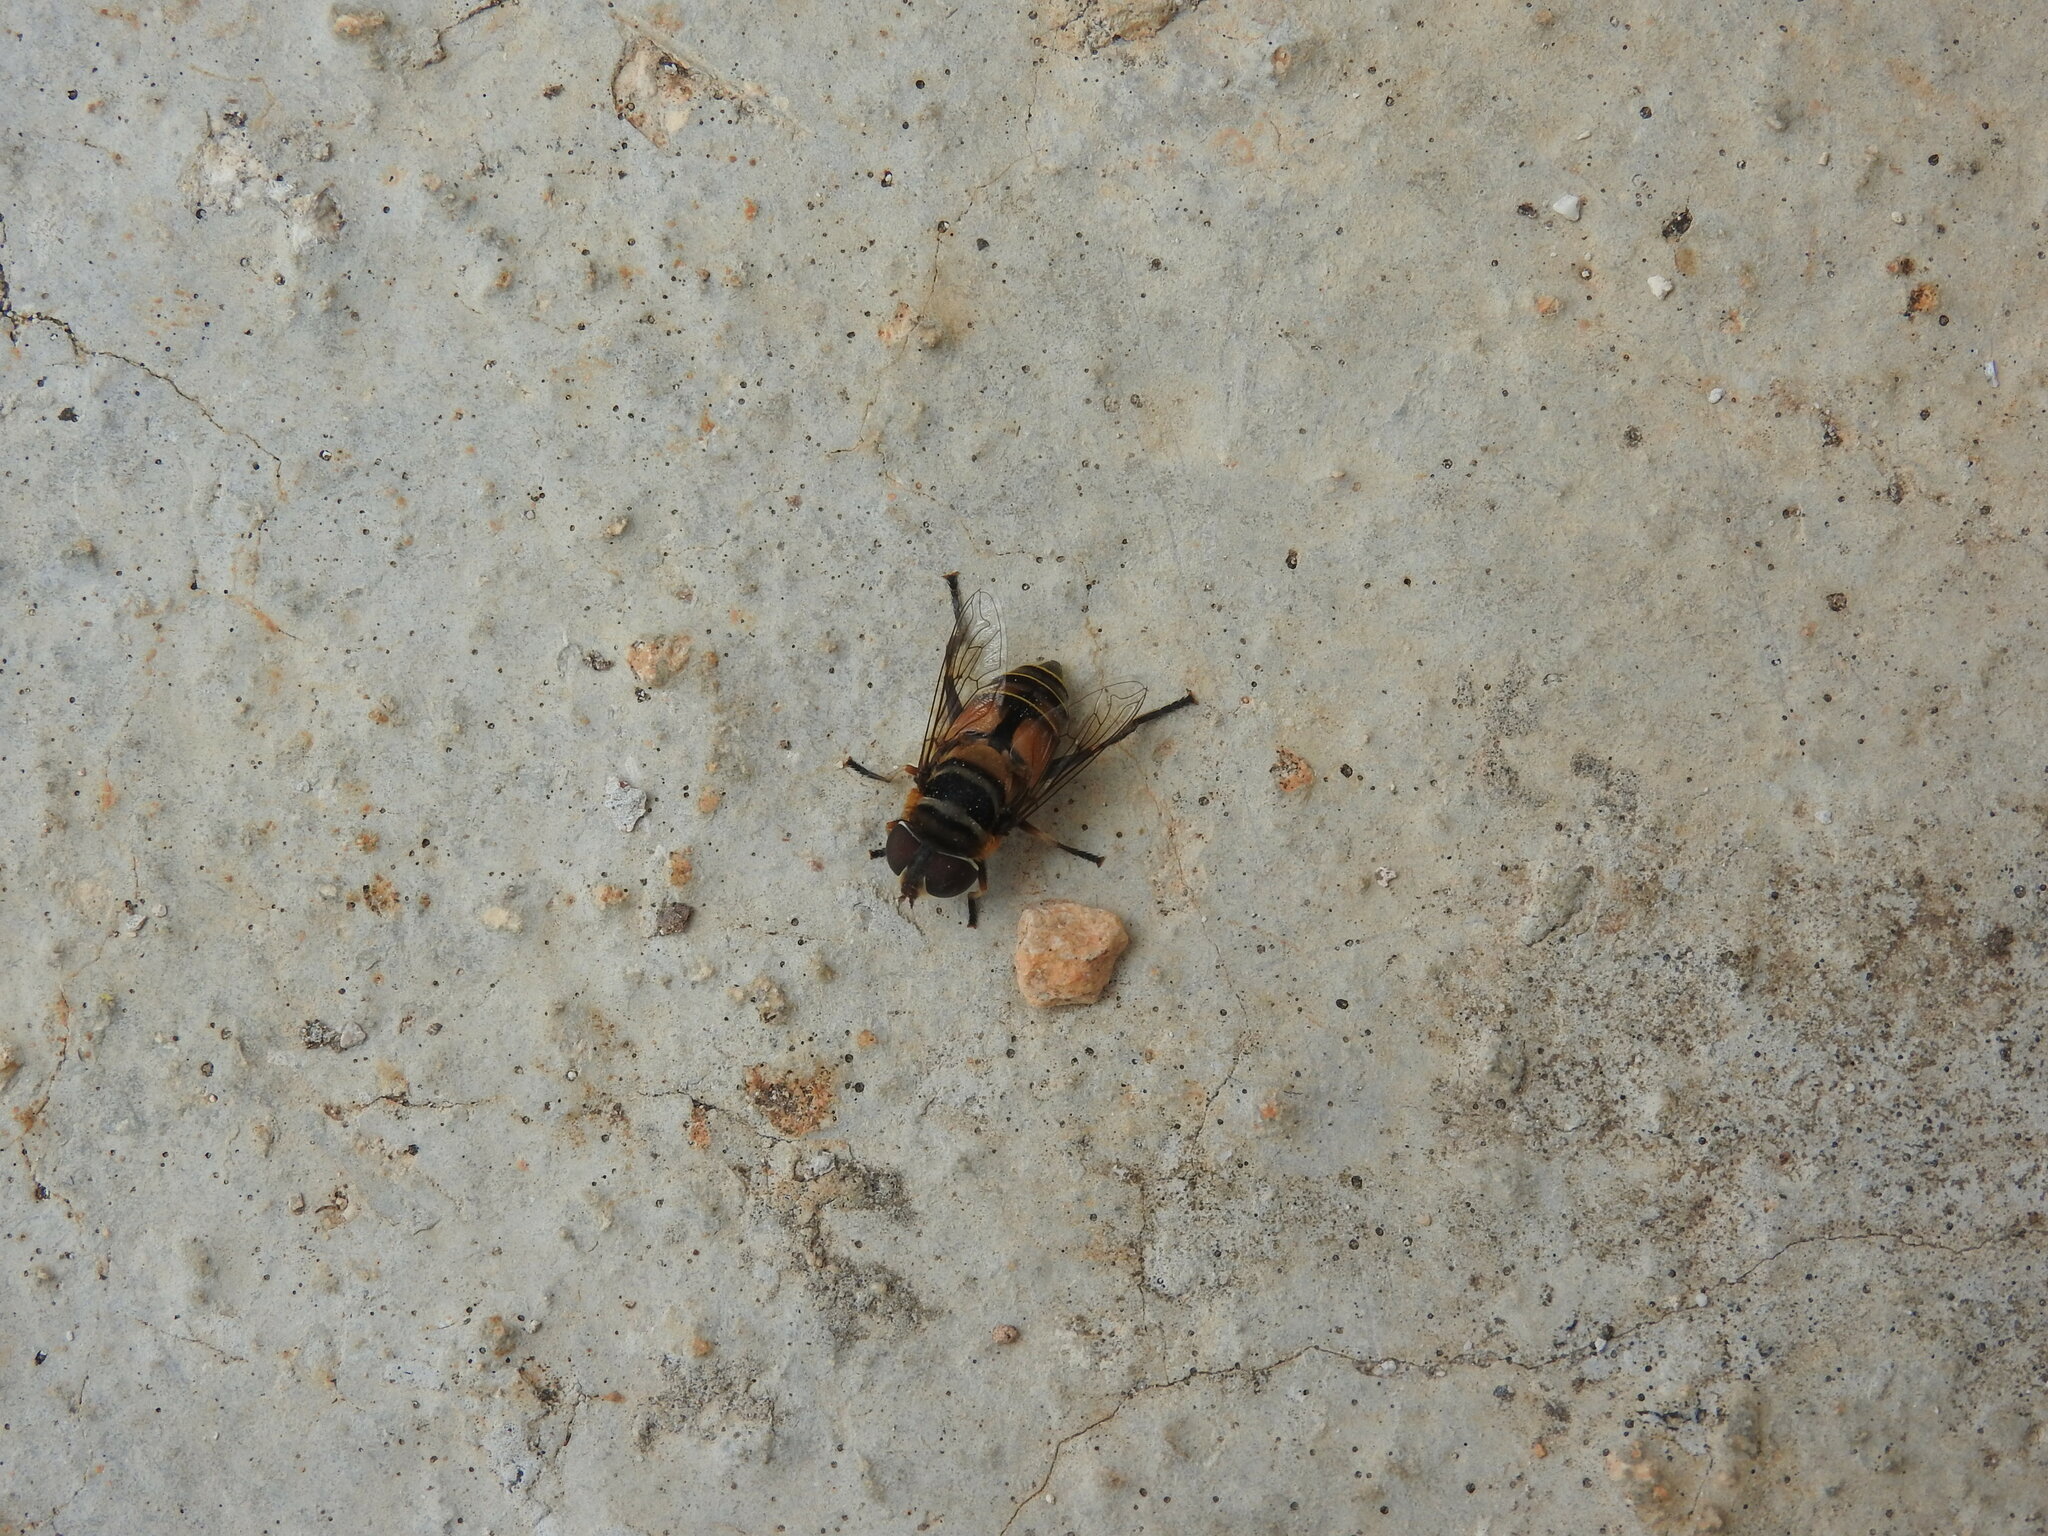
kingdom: Animalia
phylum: Arthropoda
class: Insecta
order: Diptera
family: Syrphidae
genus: Palpada
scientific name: Palpada vinetorum
